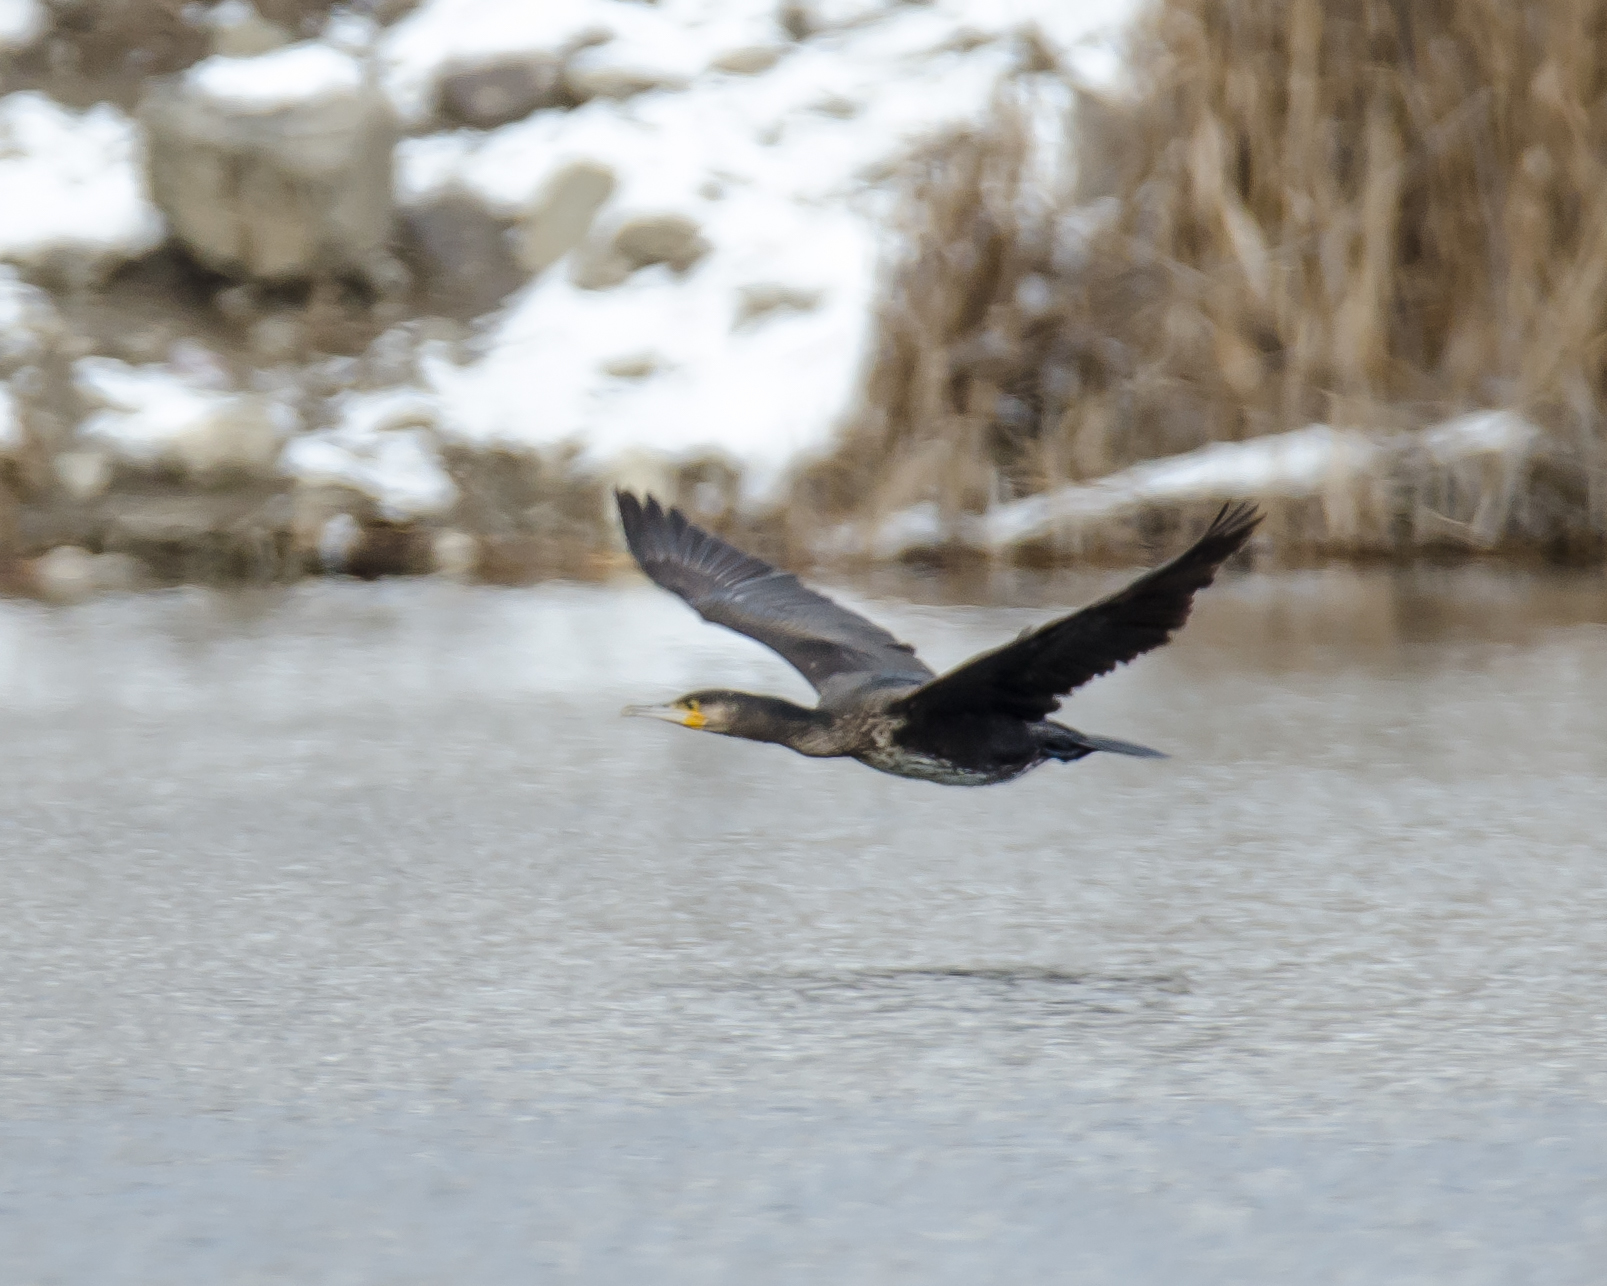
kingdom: Animalia
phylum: Chordata
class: Aves
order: Suliformes
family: Phalacrocoracidae
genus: Phalacrocorax
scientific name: Phalacrocorax carbo
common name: Great cormorant
